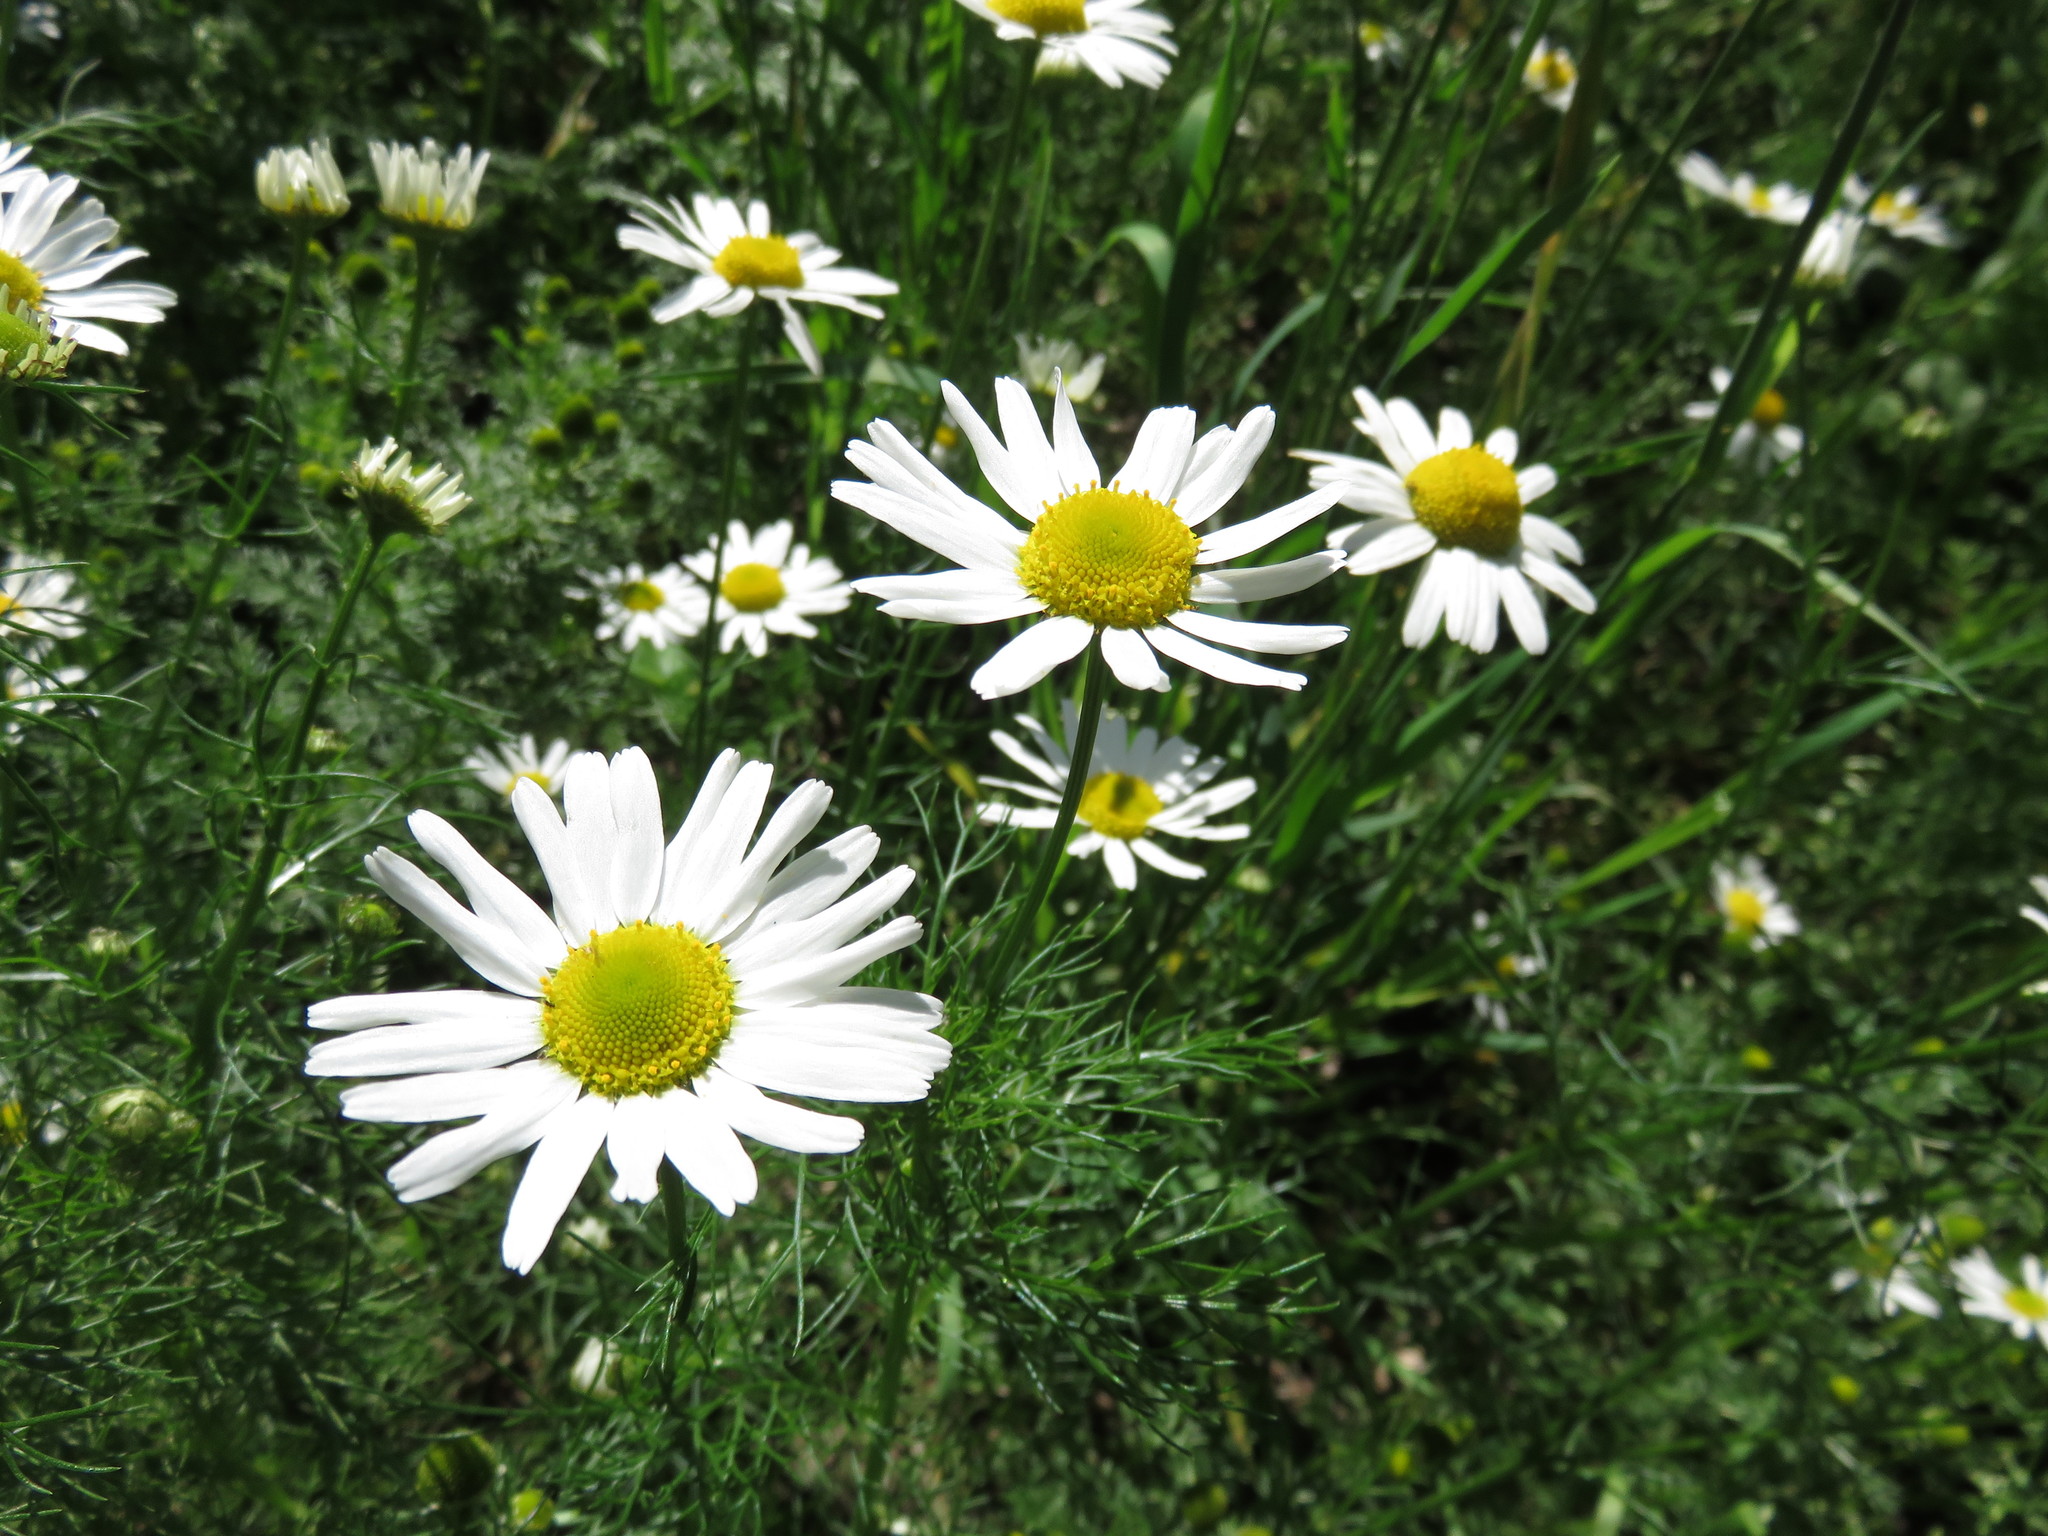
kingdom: Plantae
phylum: Tracheophyta
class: Magnoliopsida
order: Asterales
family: Asteraceae
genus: Tripleurospermum
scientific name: Tripleurospermum inodorum
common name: Scentless mayweed
